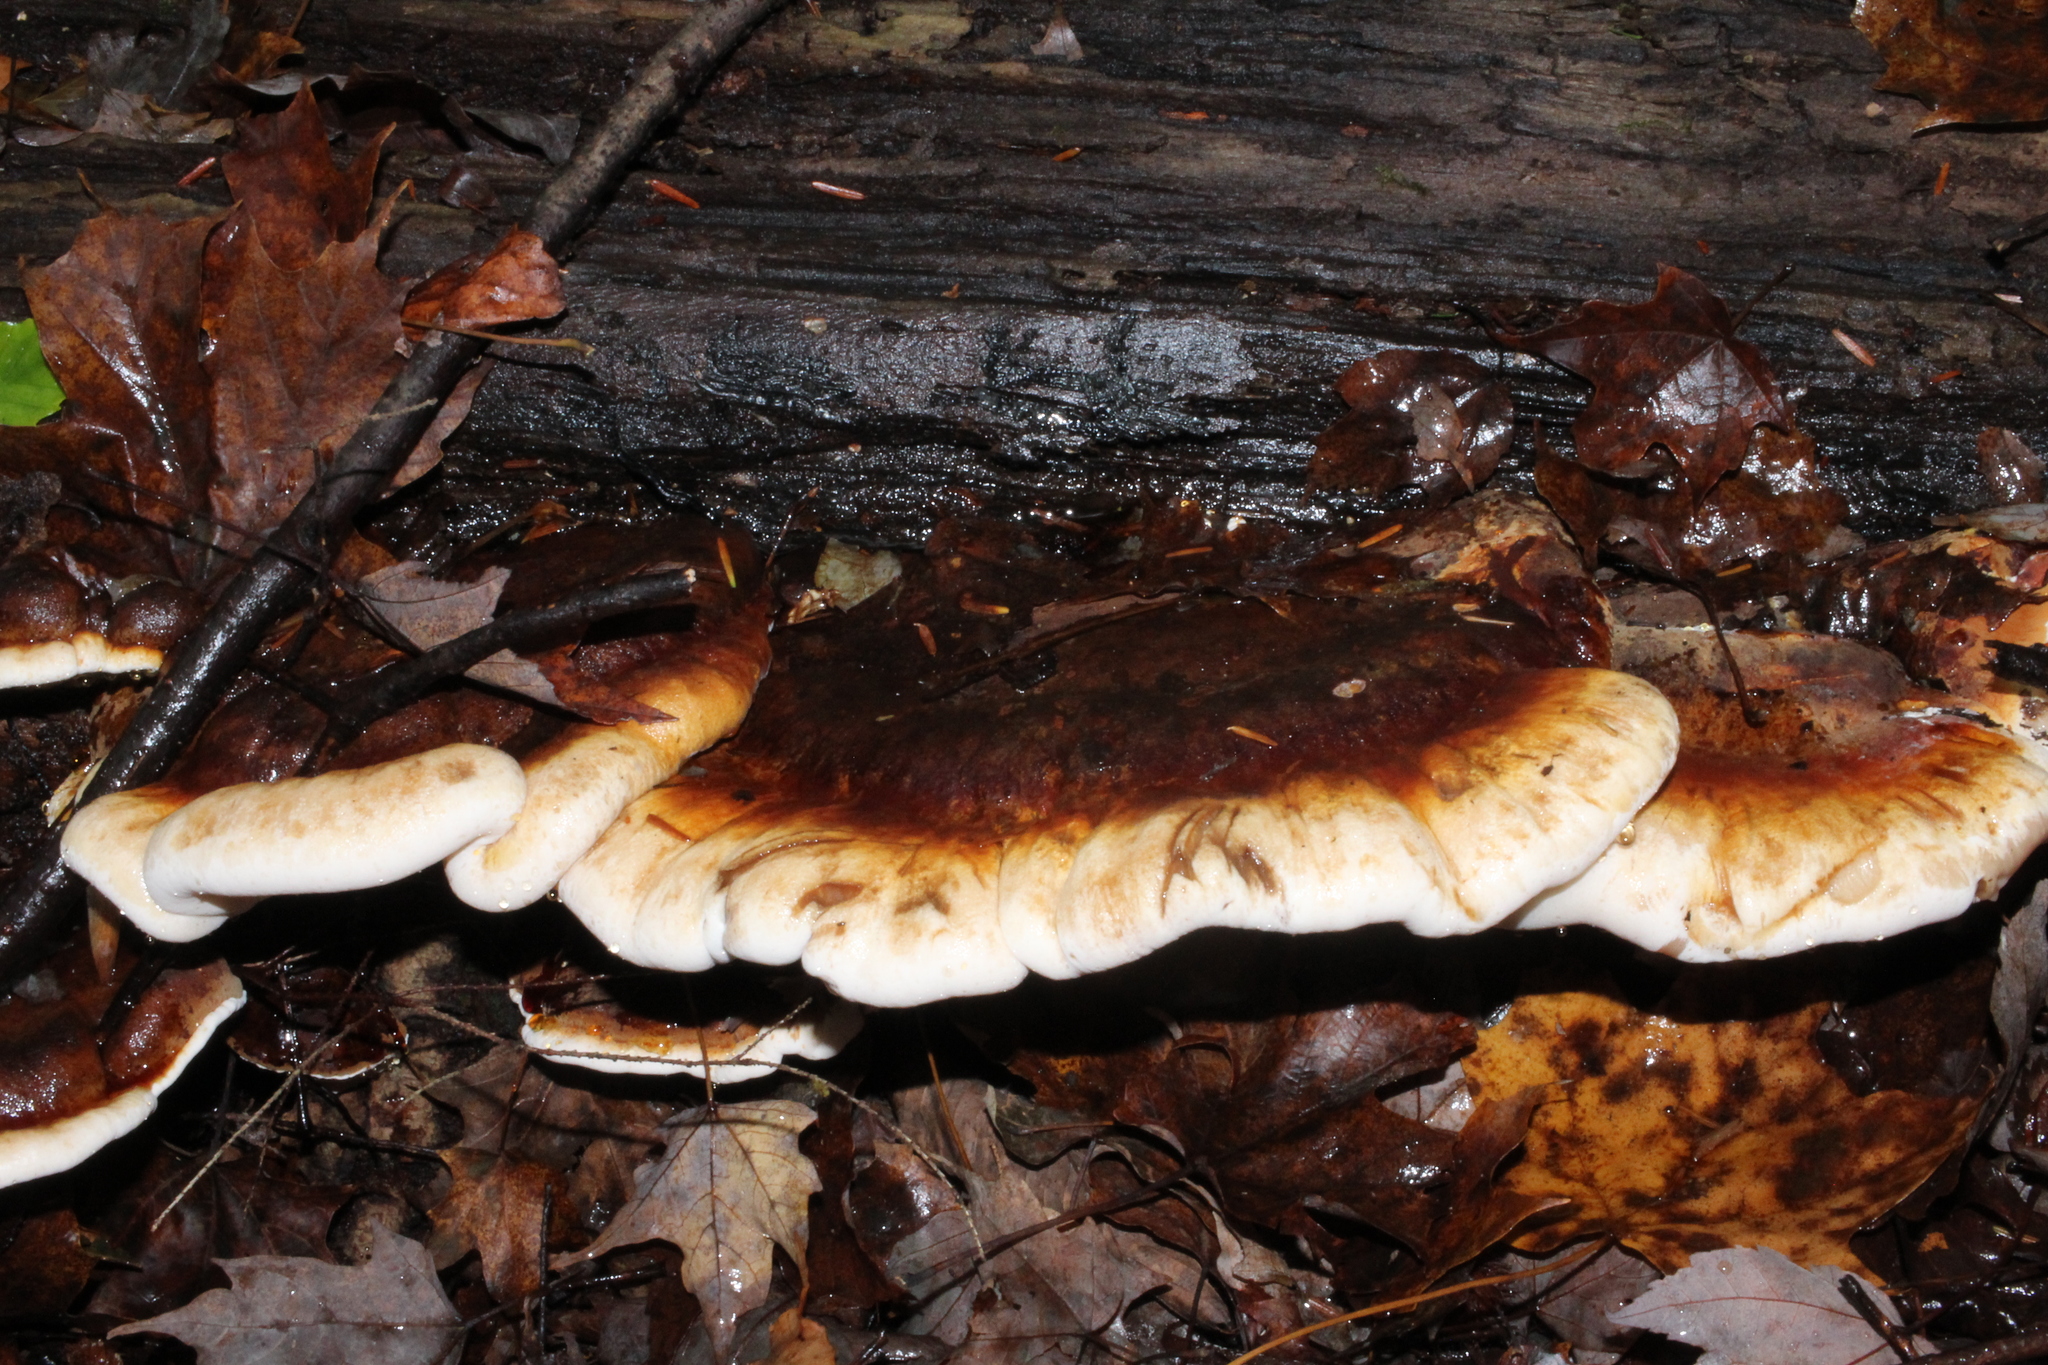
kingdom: Fungi
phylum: Basidiomycota
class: Agaricomycetes
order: Polyporales
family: Ischnodermataceae
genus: Ischnoderma
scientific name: Ischnoderma resinosum
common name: Resinous polypore
